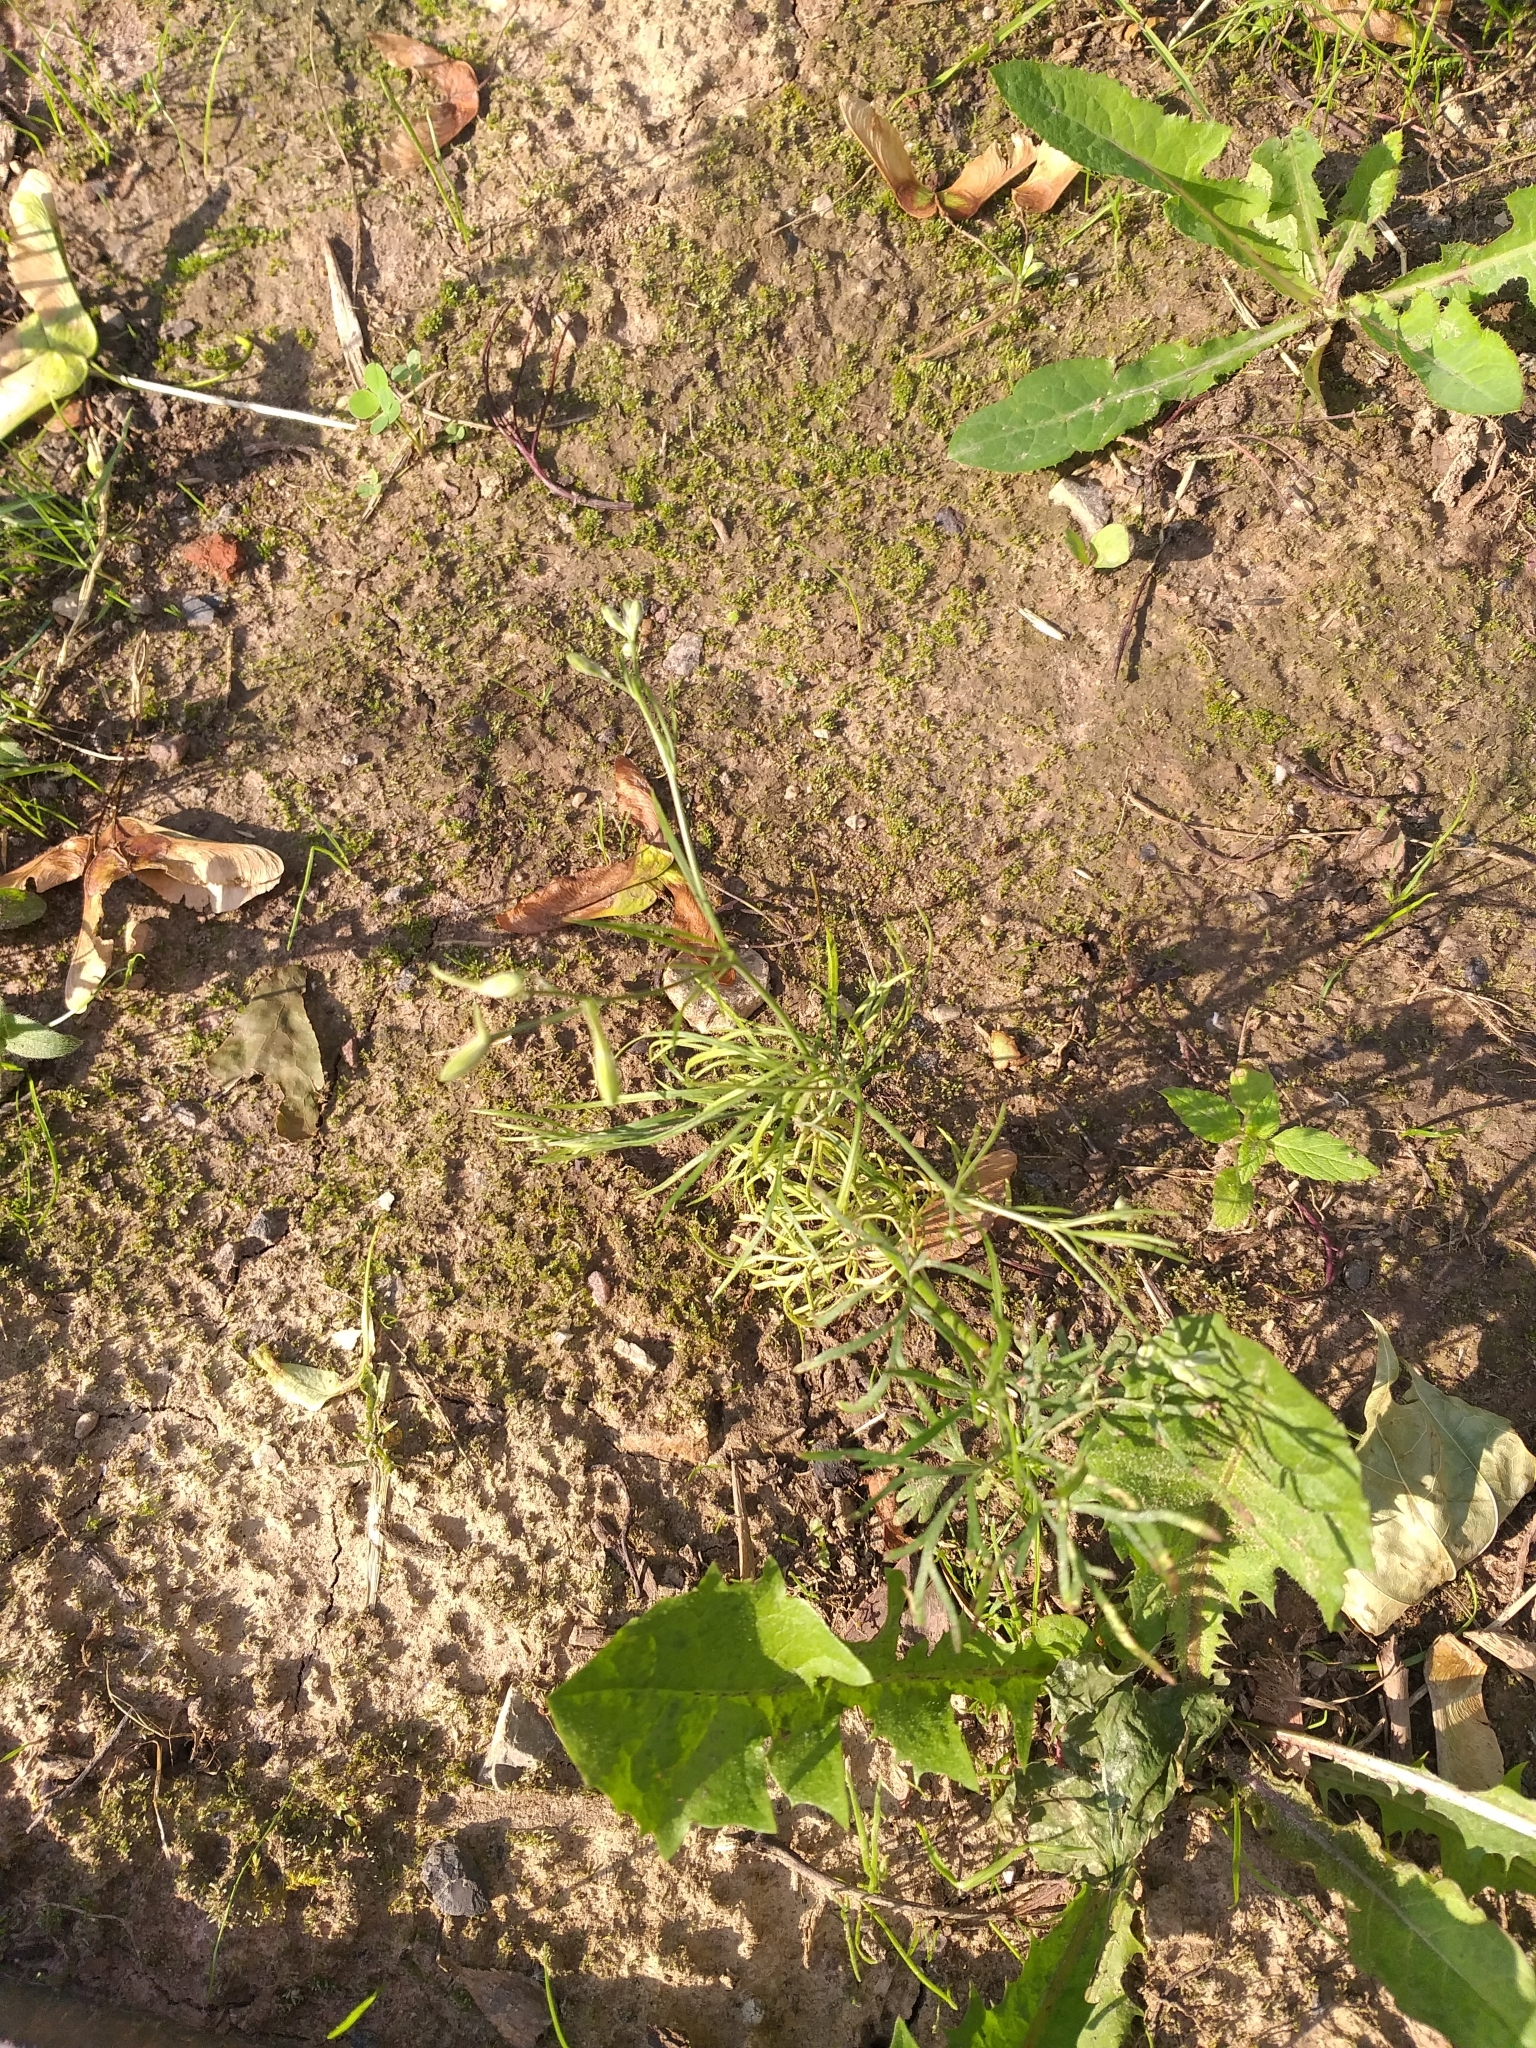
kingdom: Plantae
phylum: Tracheophyta
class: Magnoliopsida
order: Ranunculales
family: Ranunculaceae
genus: Delphinium
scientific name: Delphinium consolida
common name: Branching larkspur
